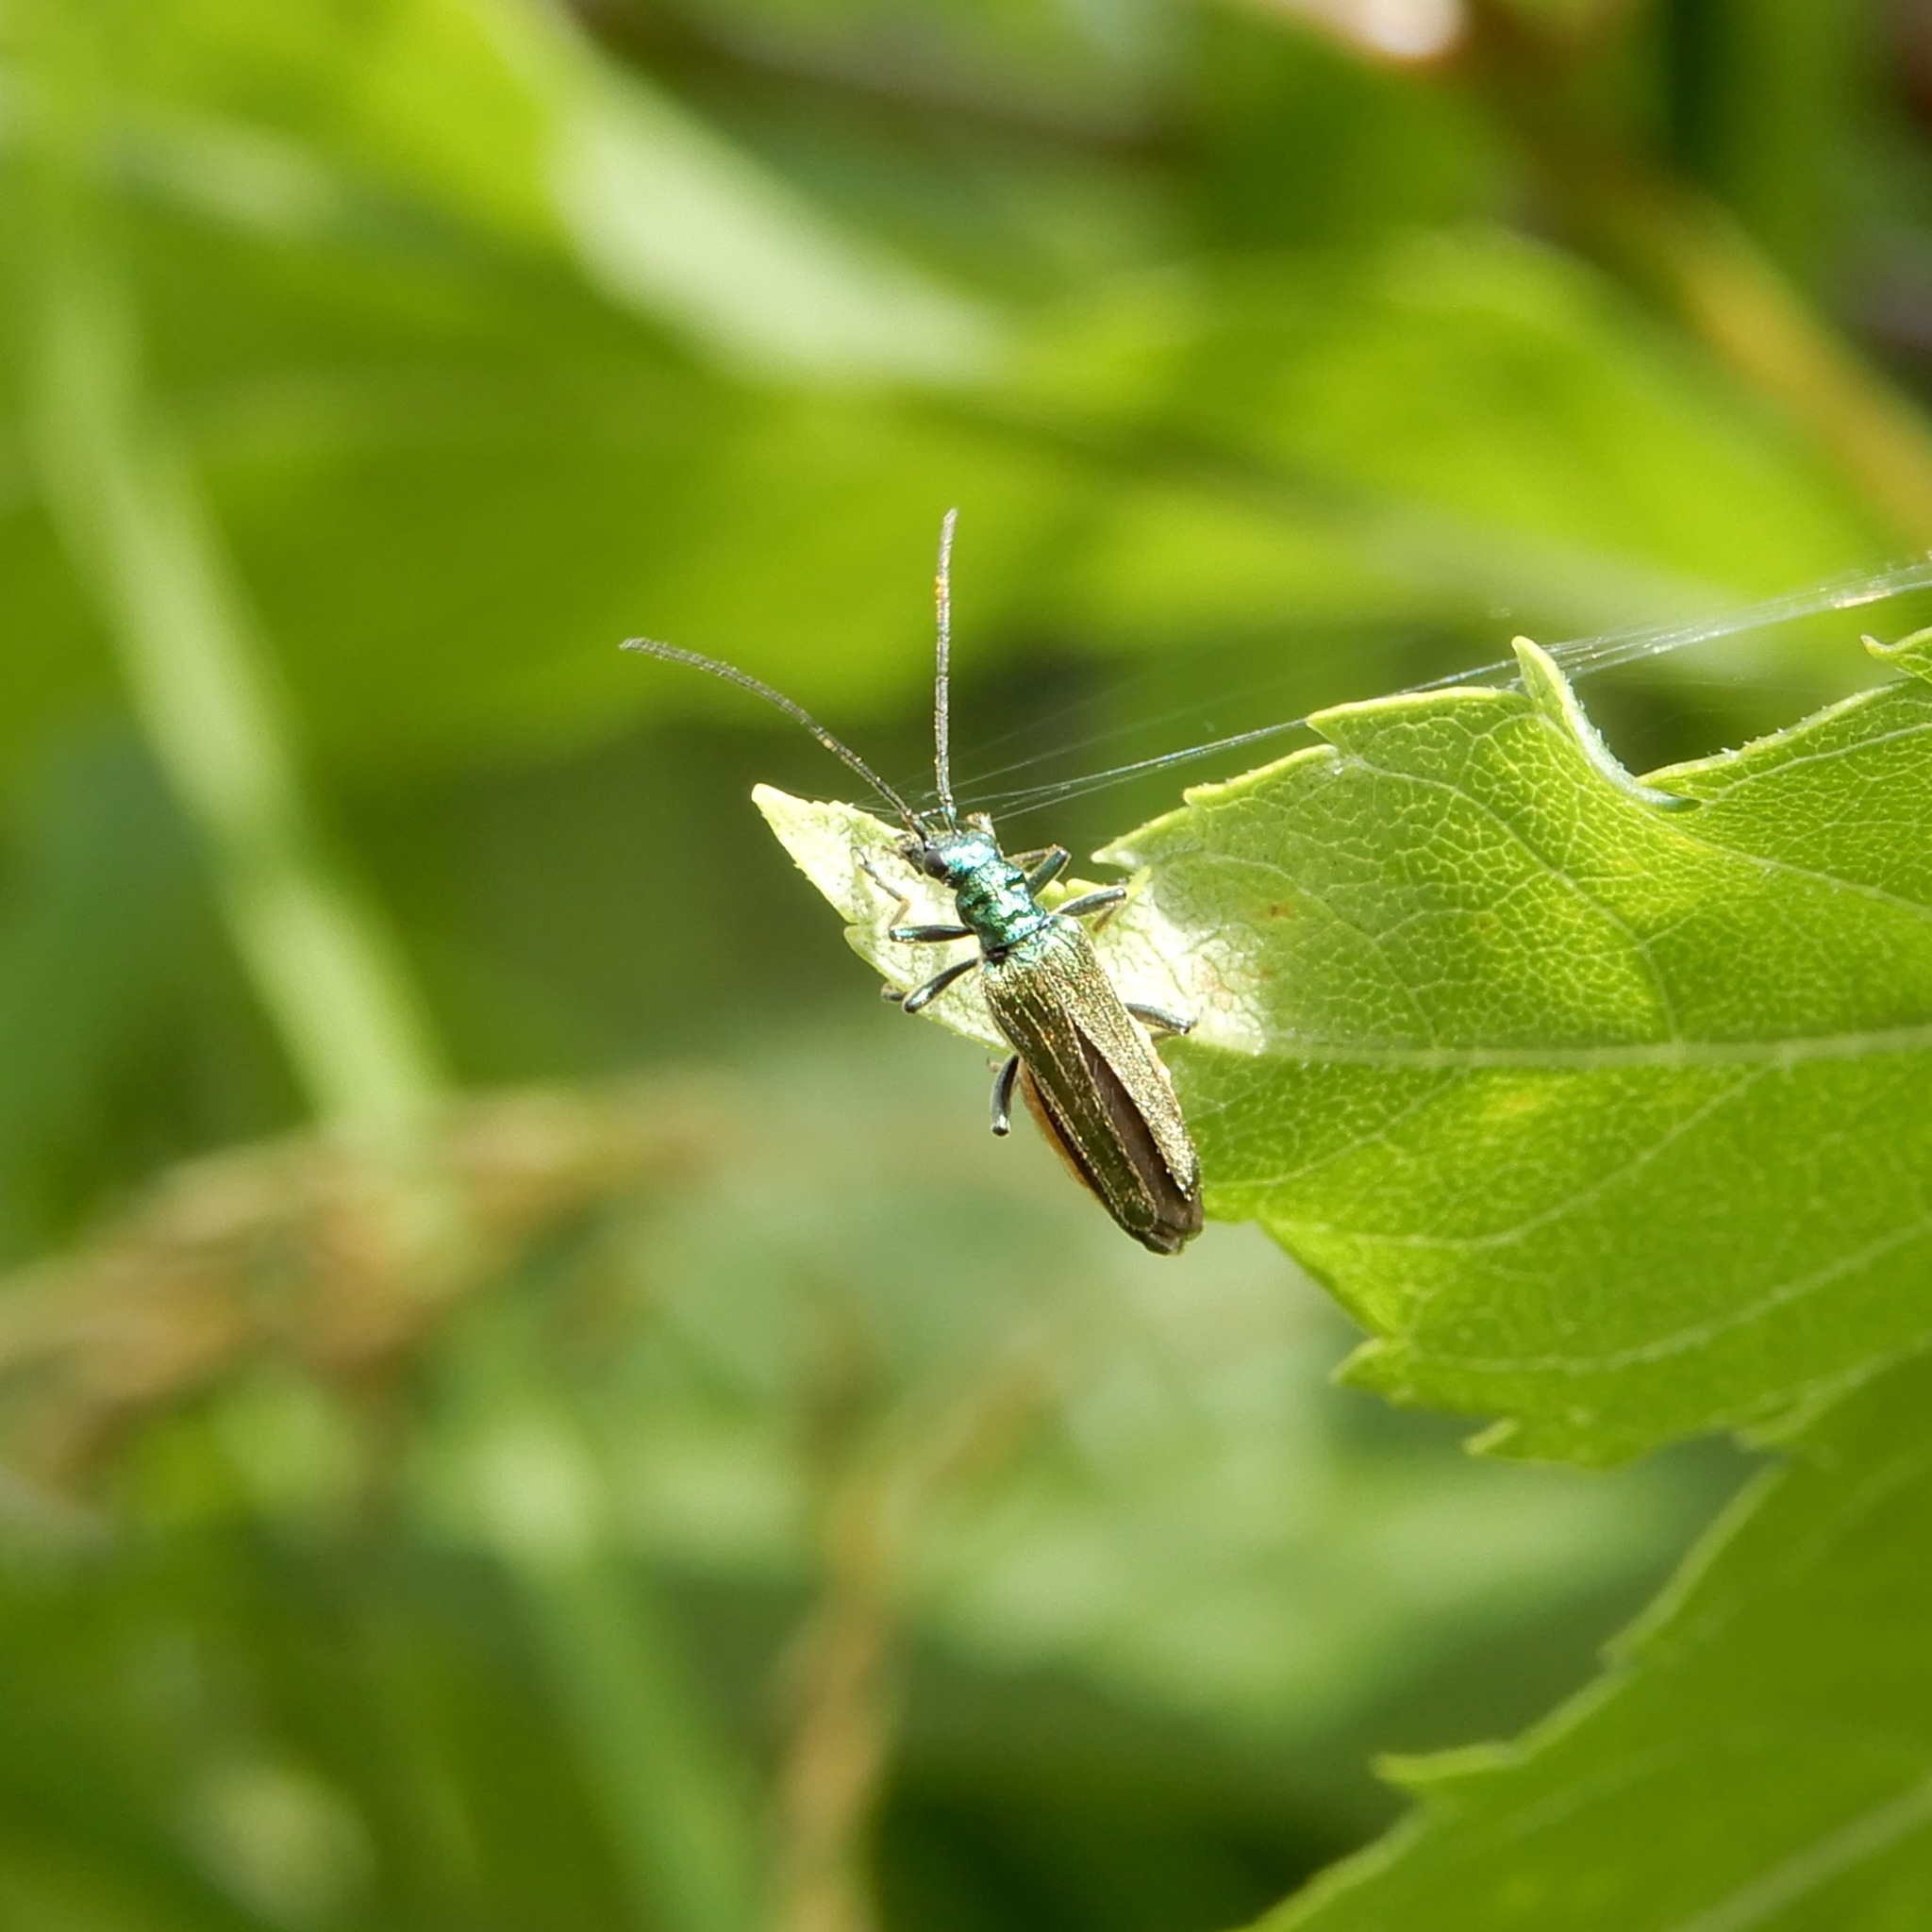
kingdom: Animalia
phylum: Arthropoda
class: Insecta
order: Coleoptera
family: Oedemeridae
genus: Oedemera
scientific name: Oedemera nobilis
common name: Swollen-thighed beetle
